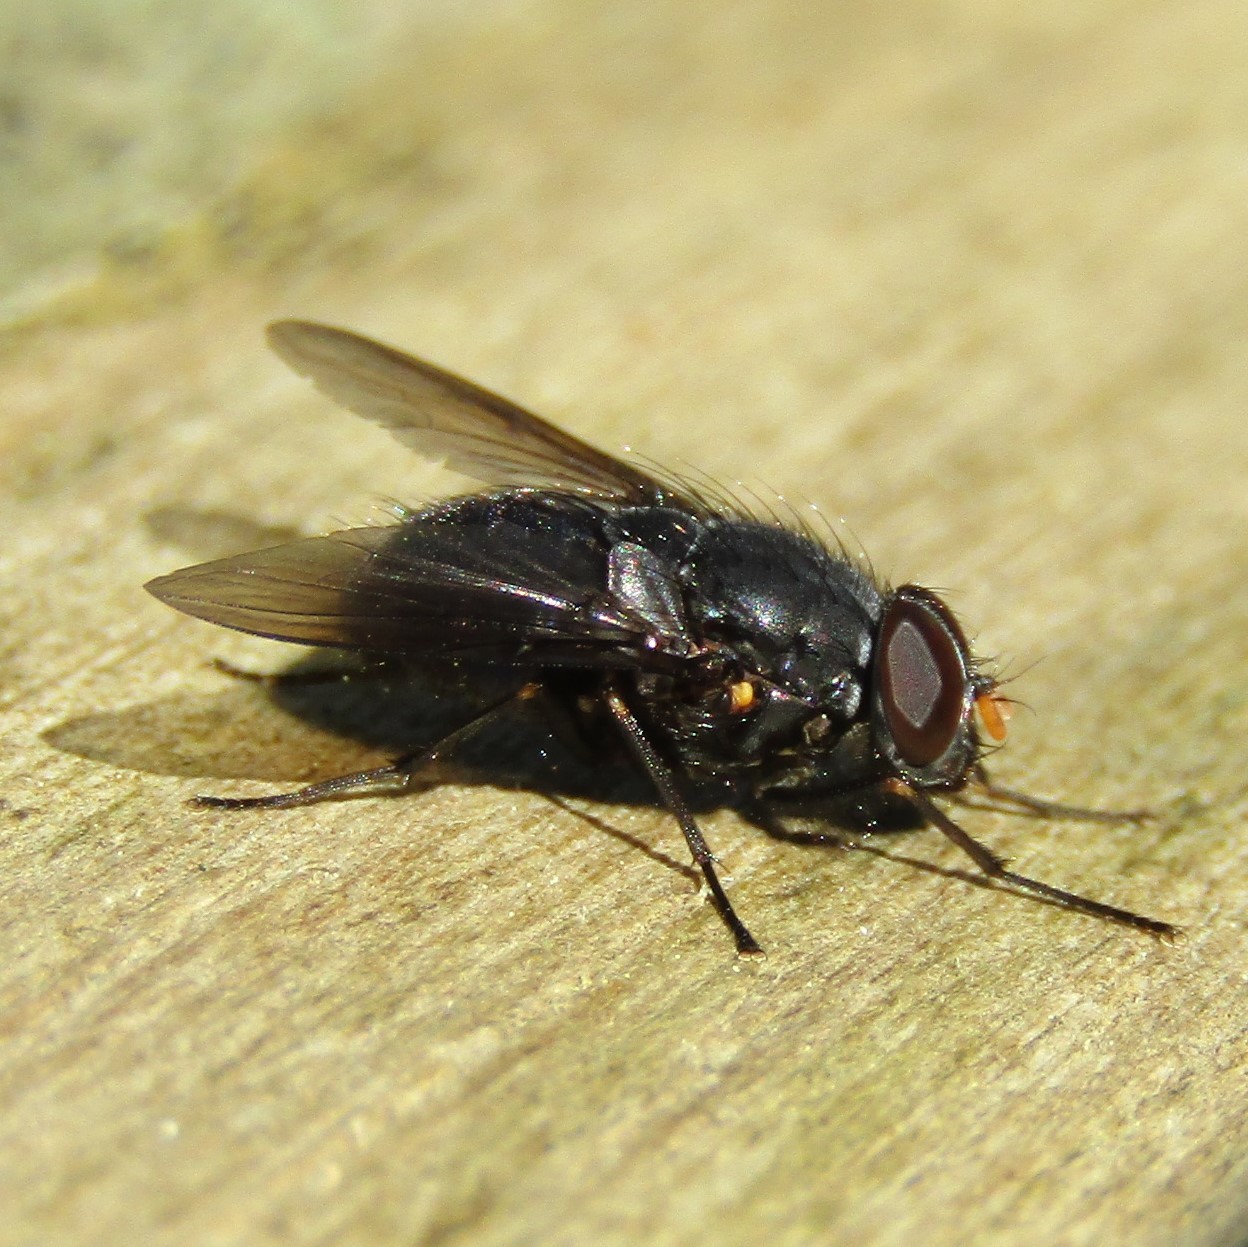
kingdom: Animalia
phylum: Arthropoda
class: Insecta
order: Diptera
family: Muscidae
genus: Calliphoroides
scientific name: Calliphoroides antennatis
